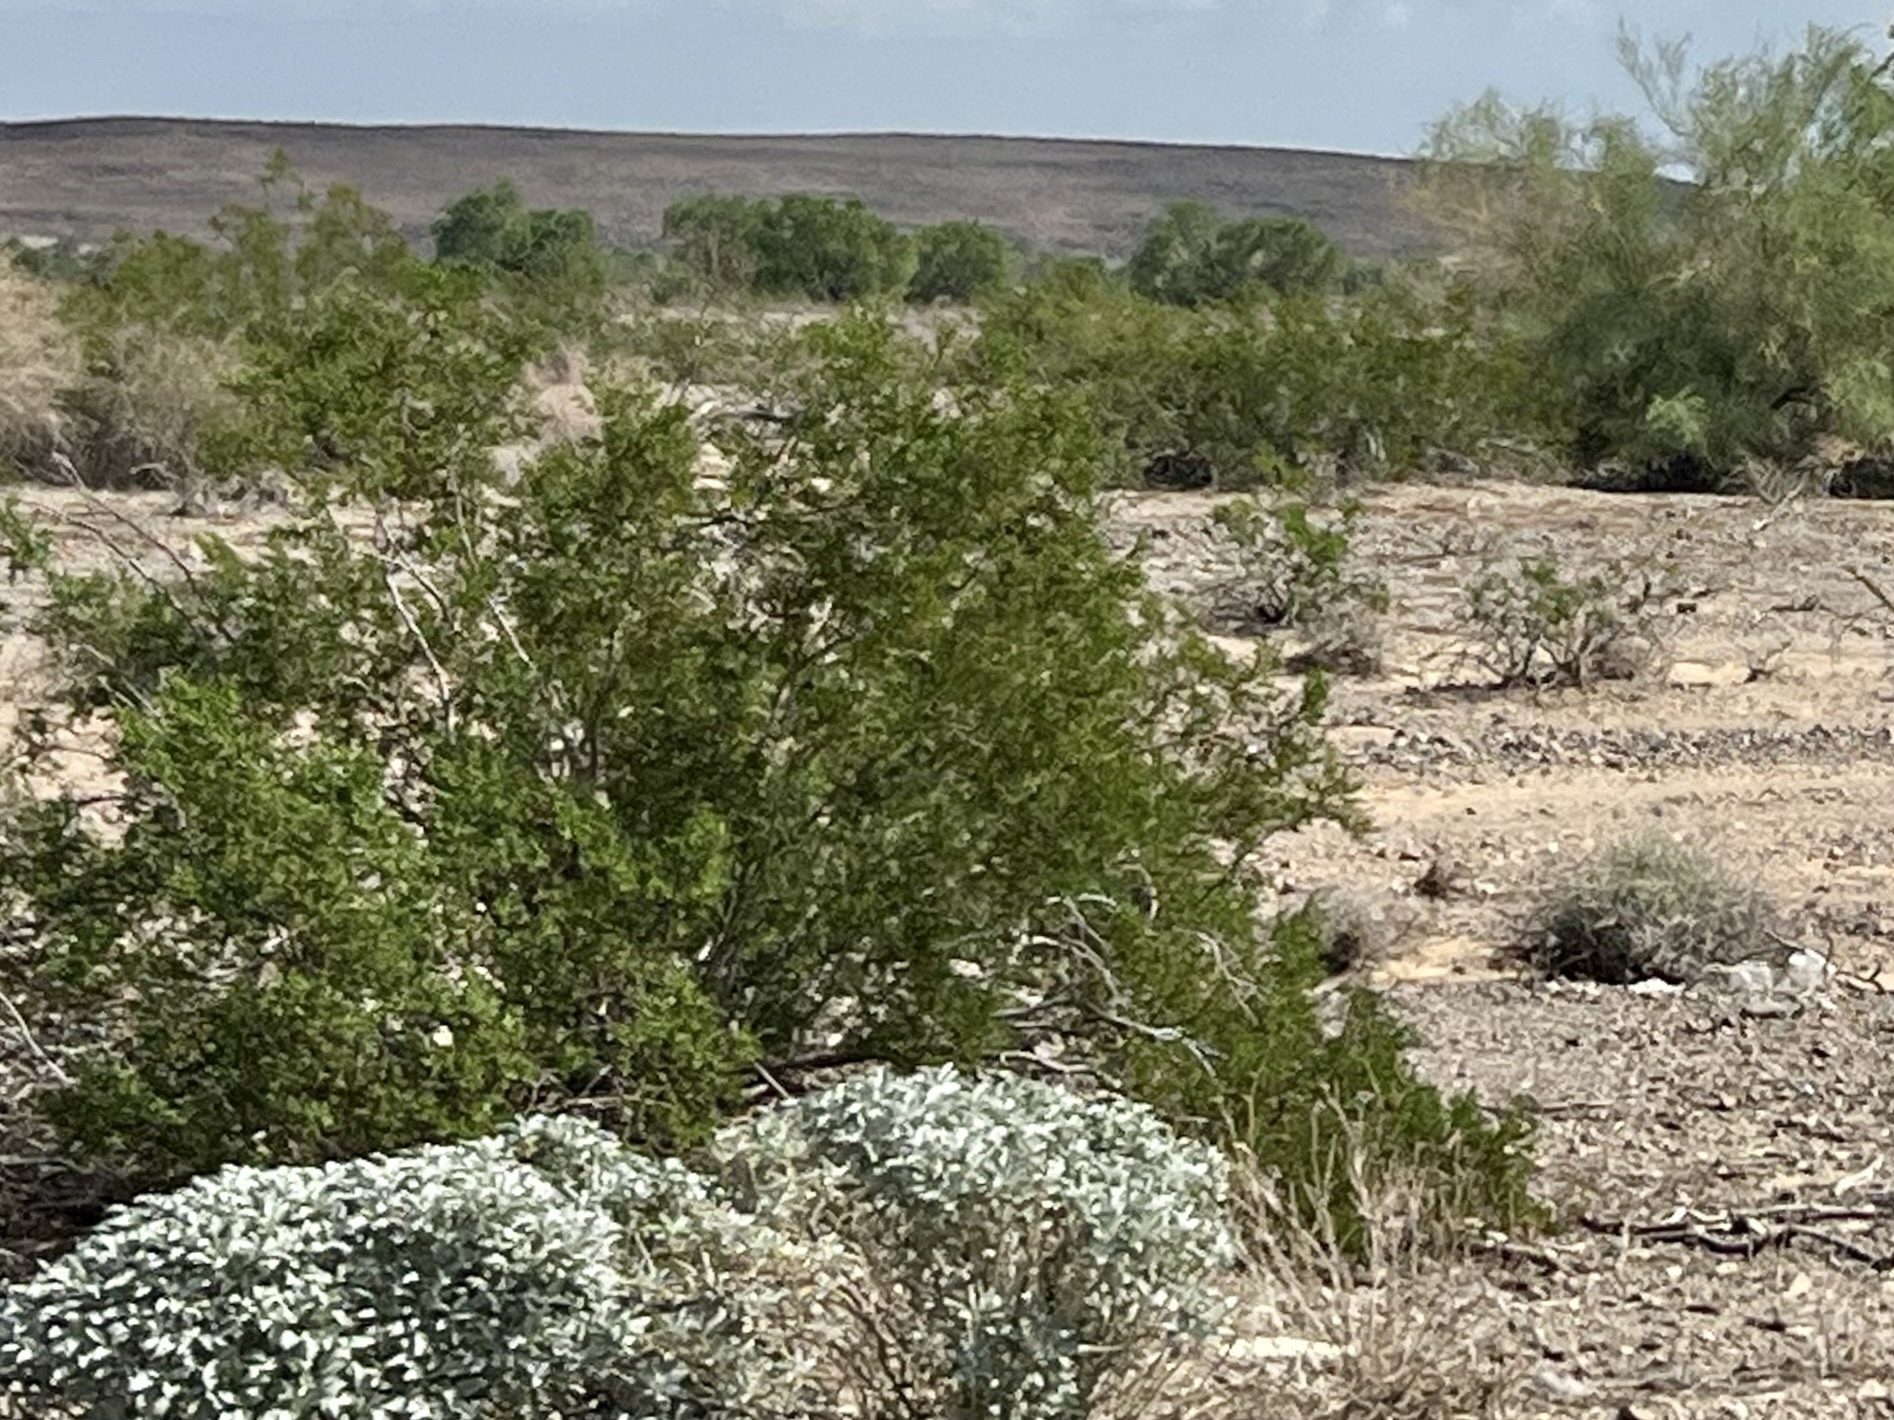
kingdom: Plantae
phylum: Tracheophyta
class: Magnoliopsida
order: Zygophyllales
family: Zygophyllaceae
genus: Larrea
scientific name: Larrea tridentata
